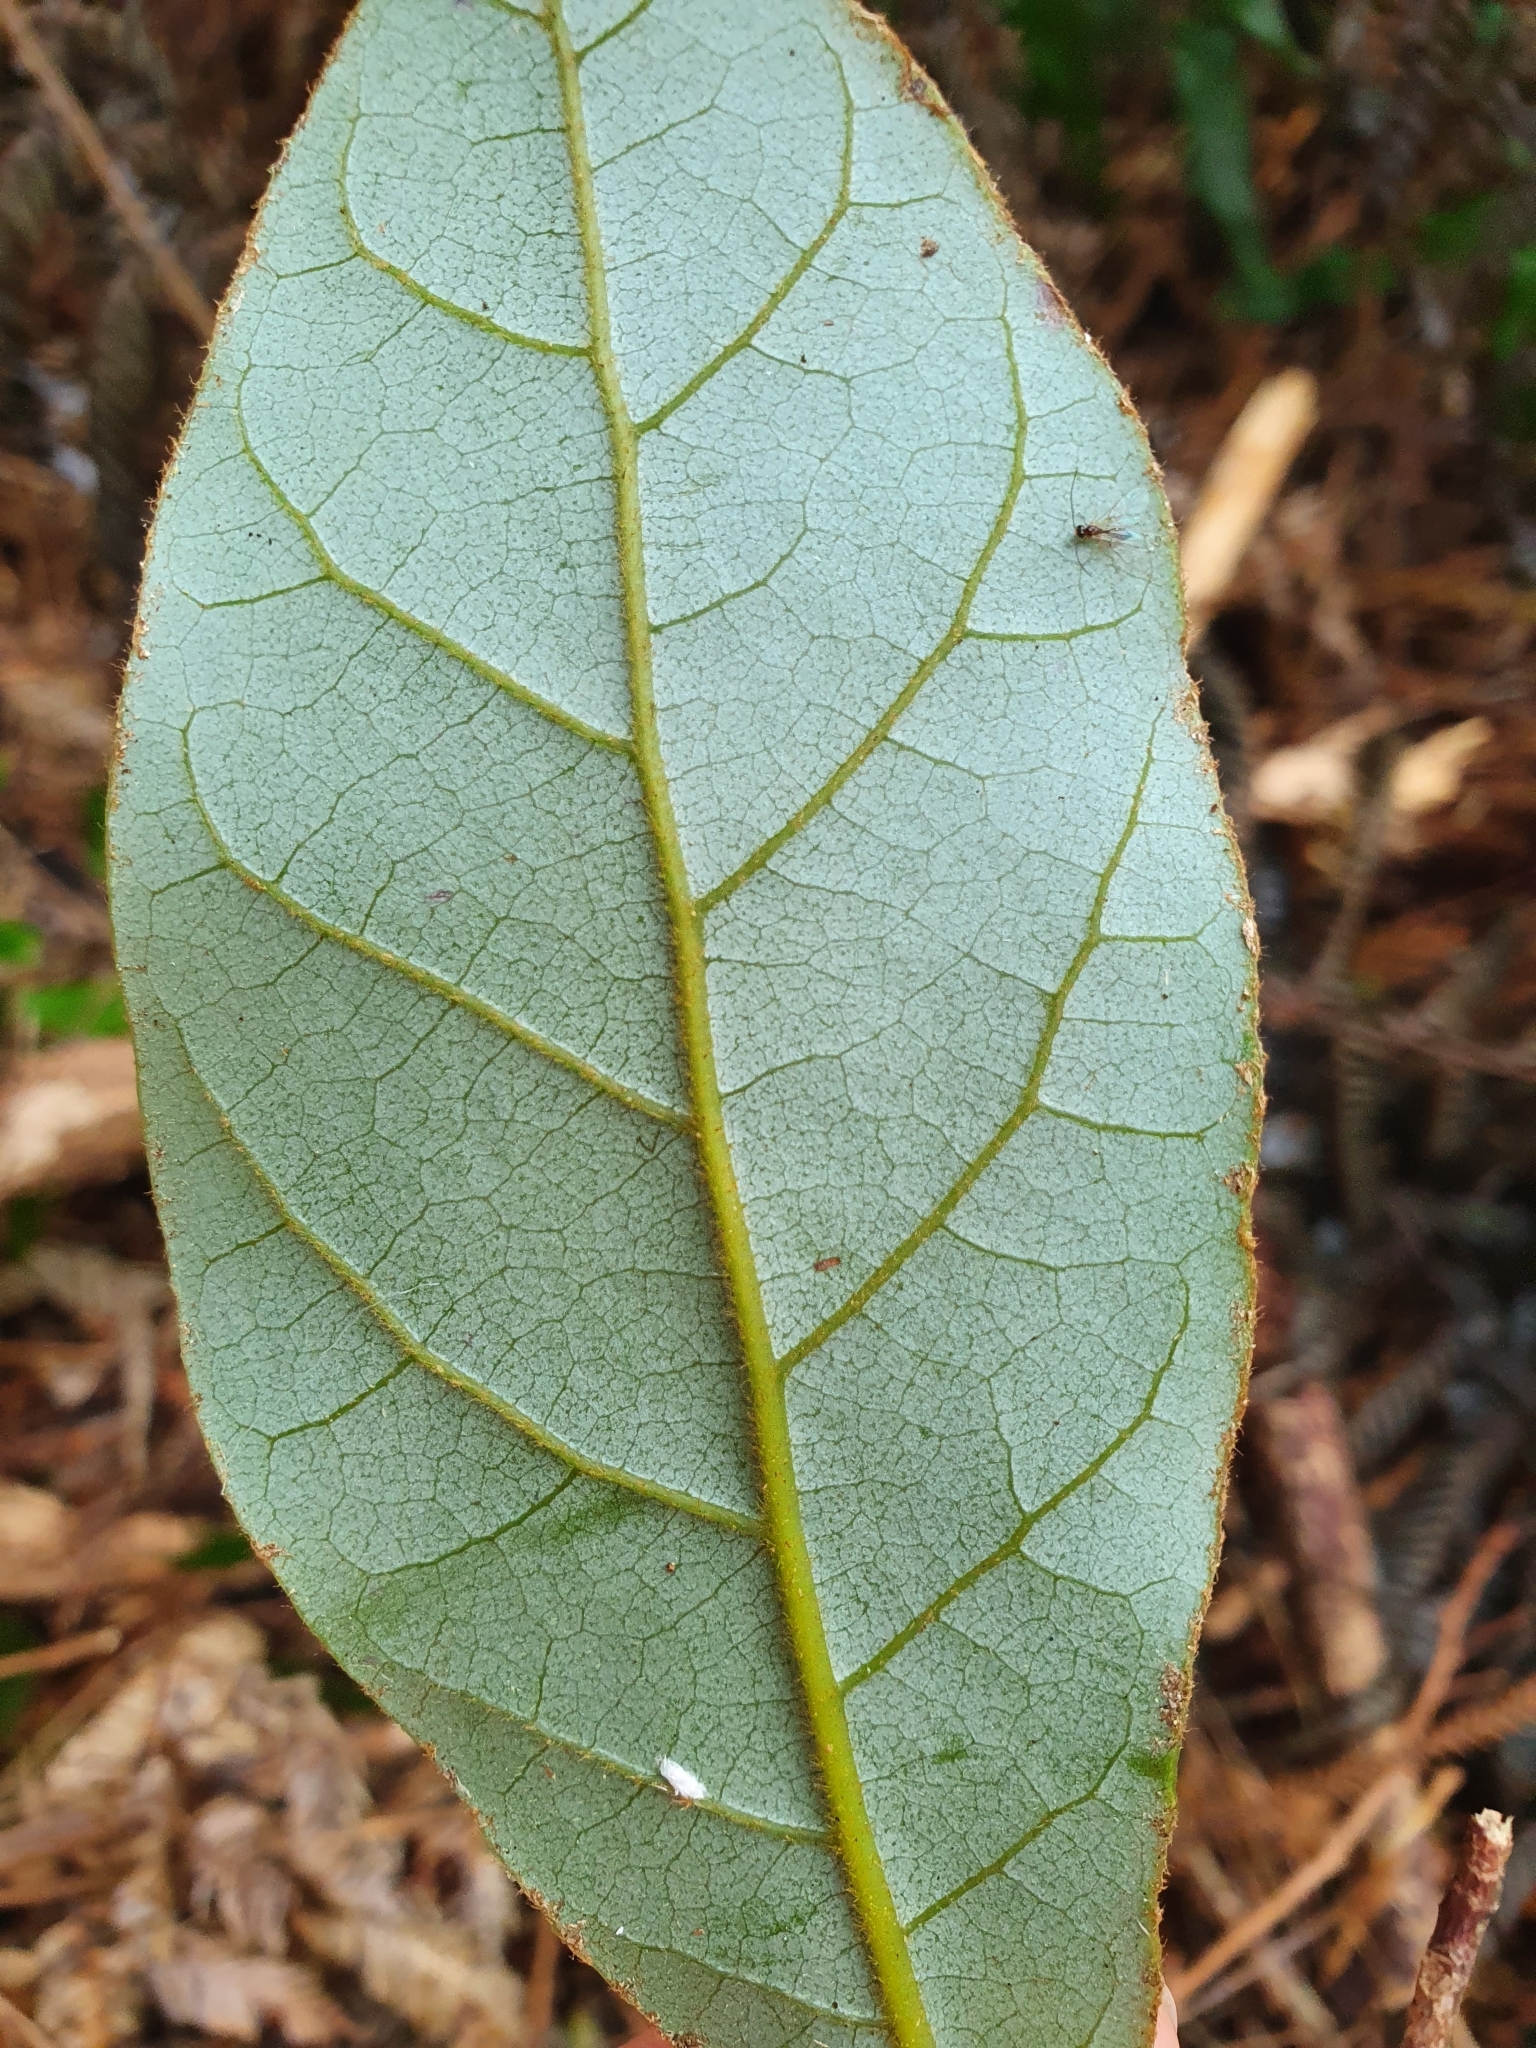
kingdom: Plantae
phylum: Tracheophyta
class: Magnoliopsida
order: Laurales
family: Lauraceae
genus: Beilschmiedia
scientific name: Beilschmiedia tarairi
